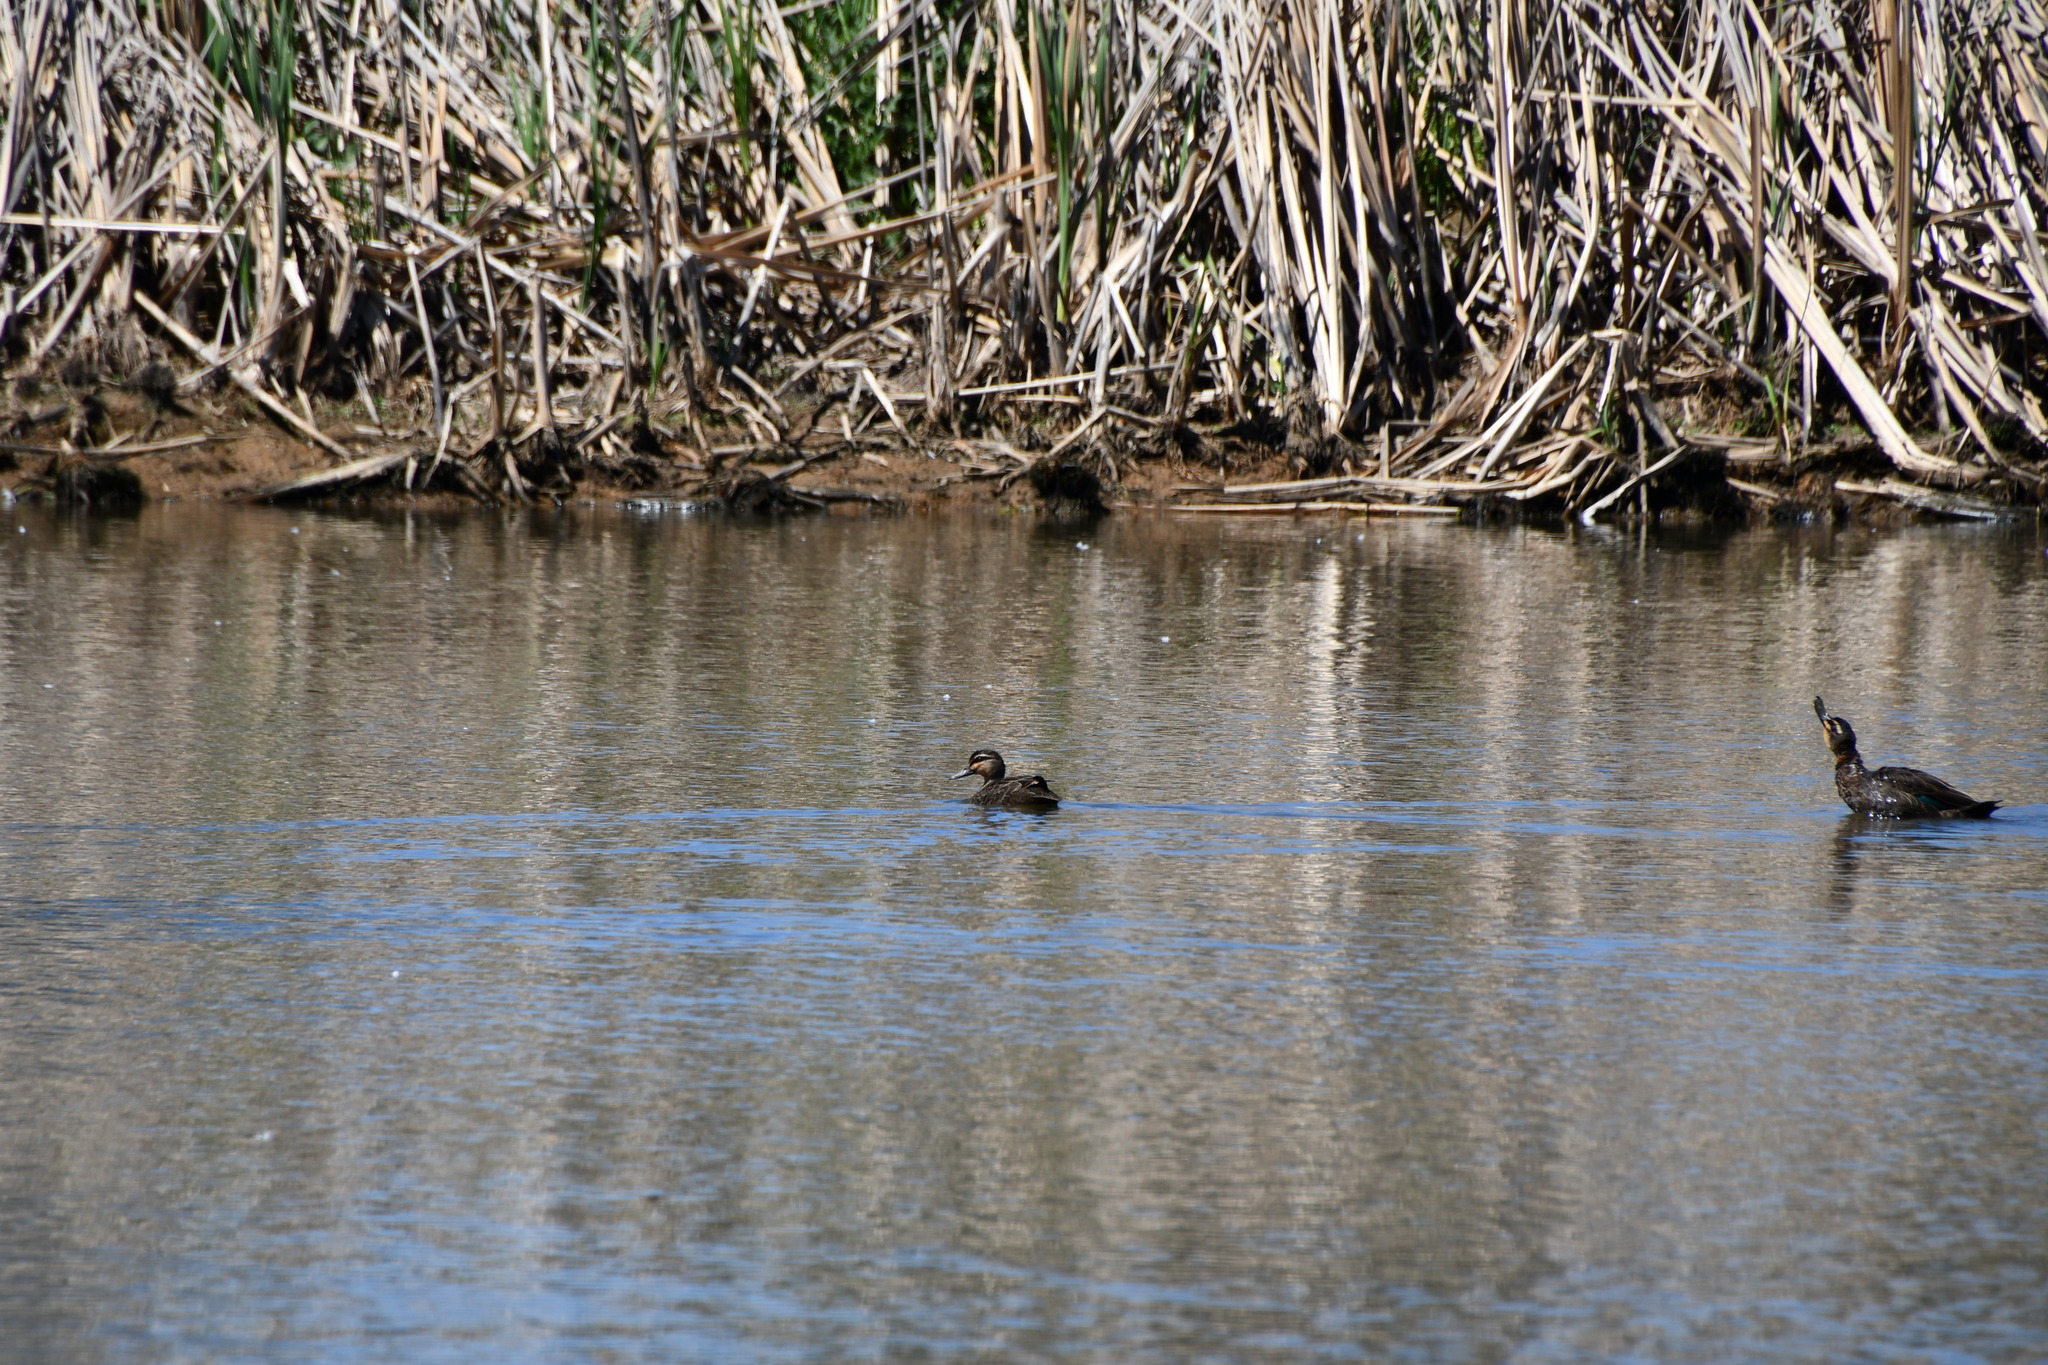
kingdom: Animalia
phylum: Chordata
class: Aves
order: Anseriformes
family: Anatidae
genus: Anas
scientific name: Anas superciliosa
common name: Pacific black duck
